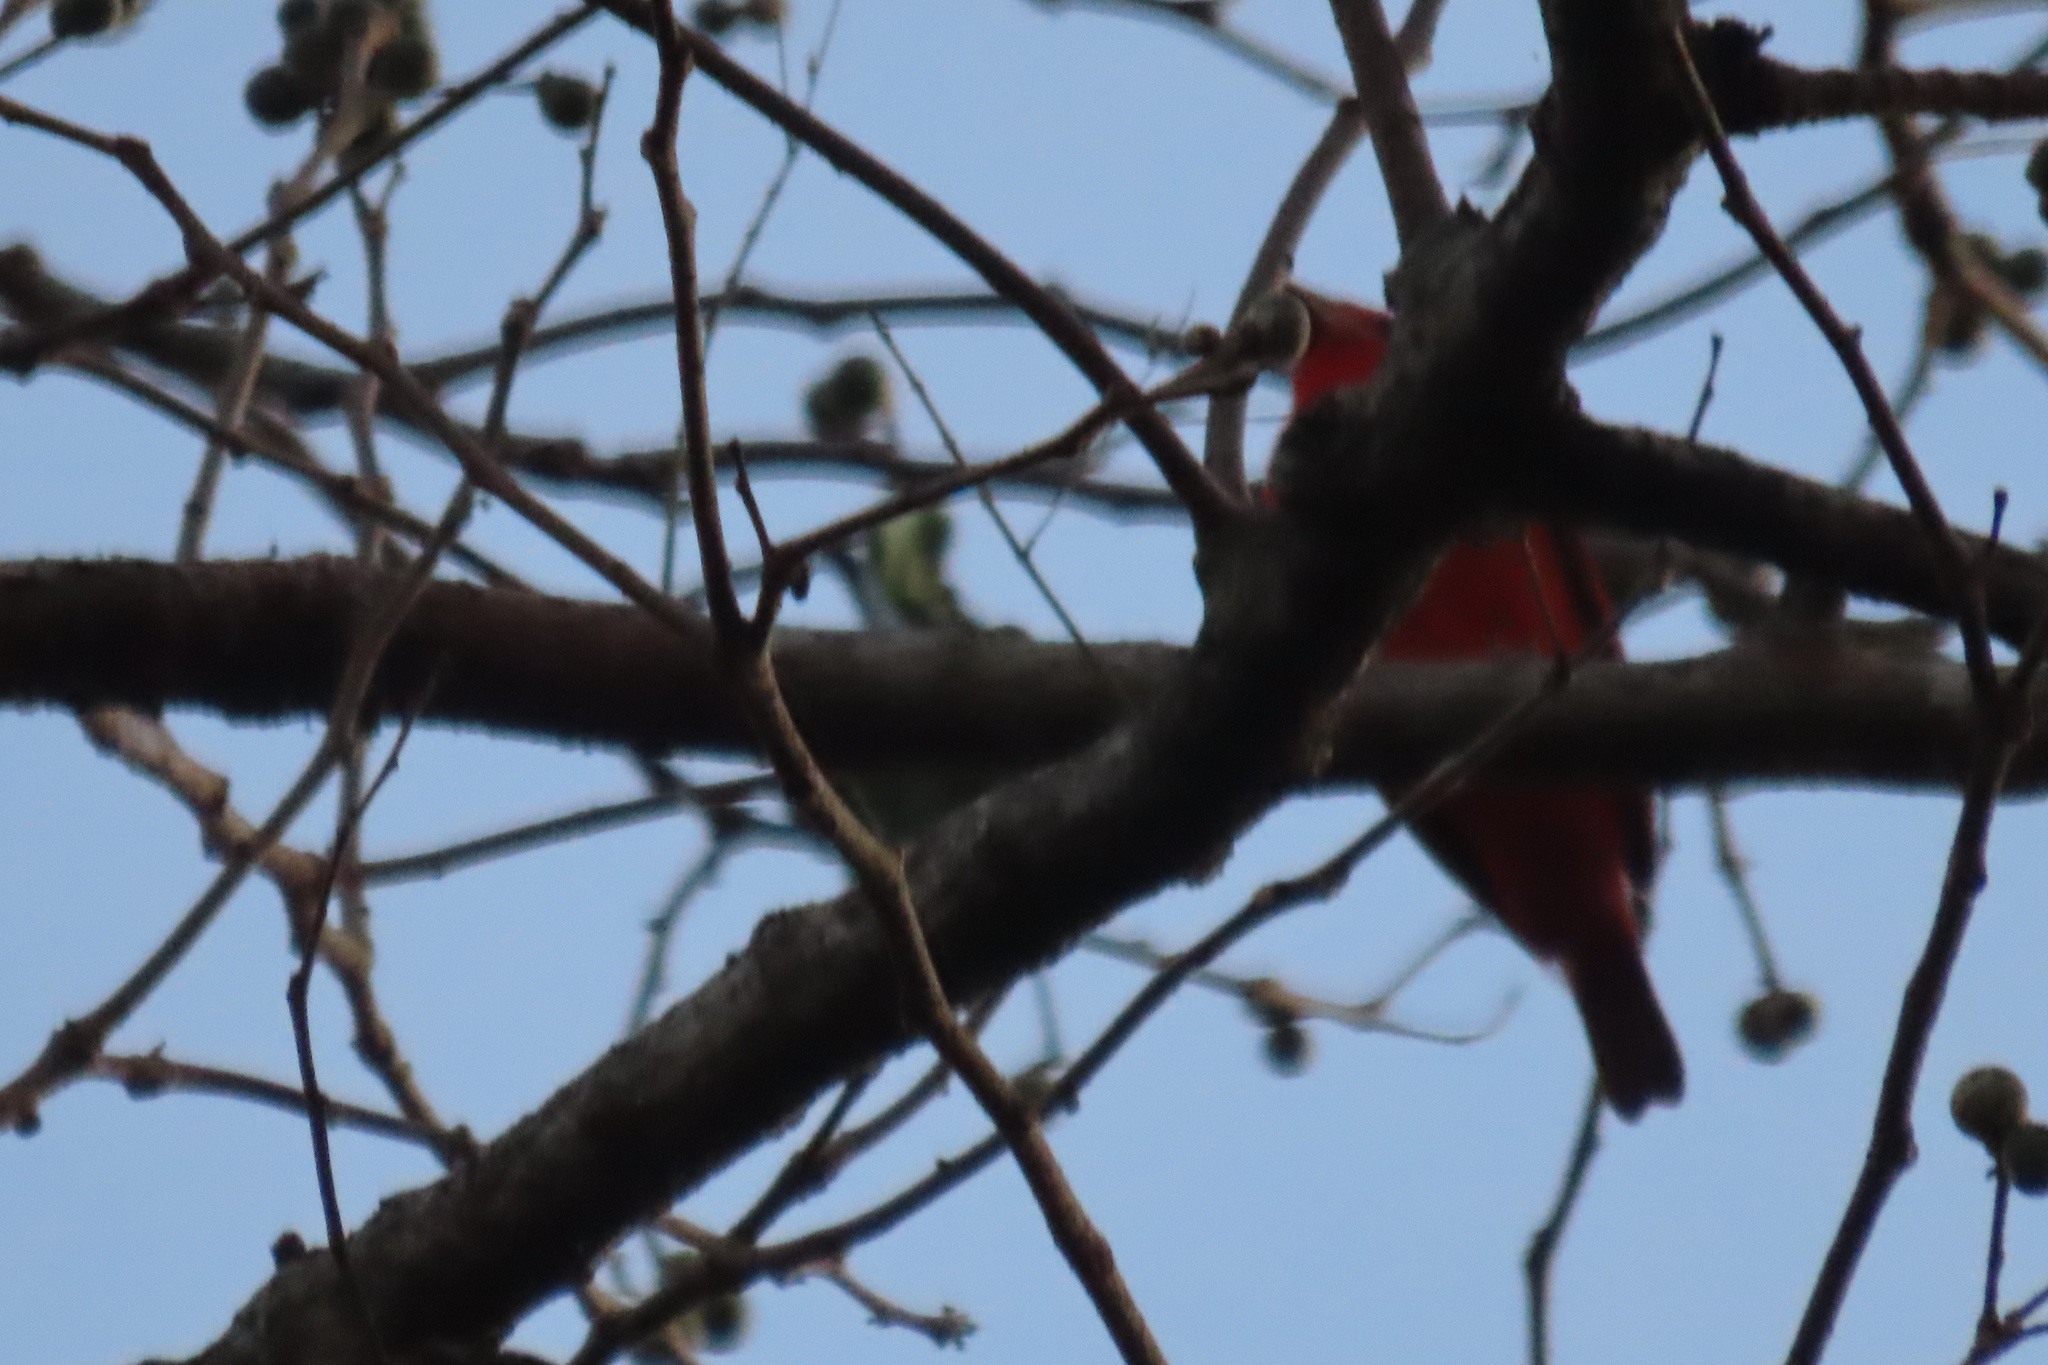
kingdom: Animalia
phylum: Chordata
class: Aves
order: Passeriformes
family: Cardinalidae
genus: Piranga
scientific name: Piranga rubra
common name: Summer tanager
